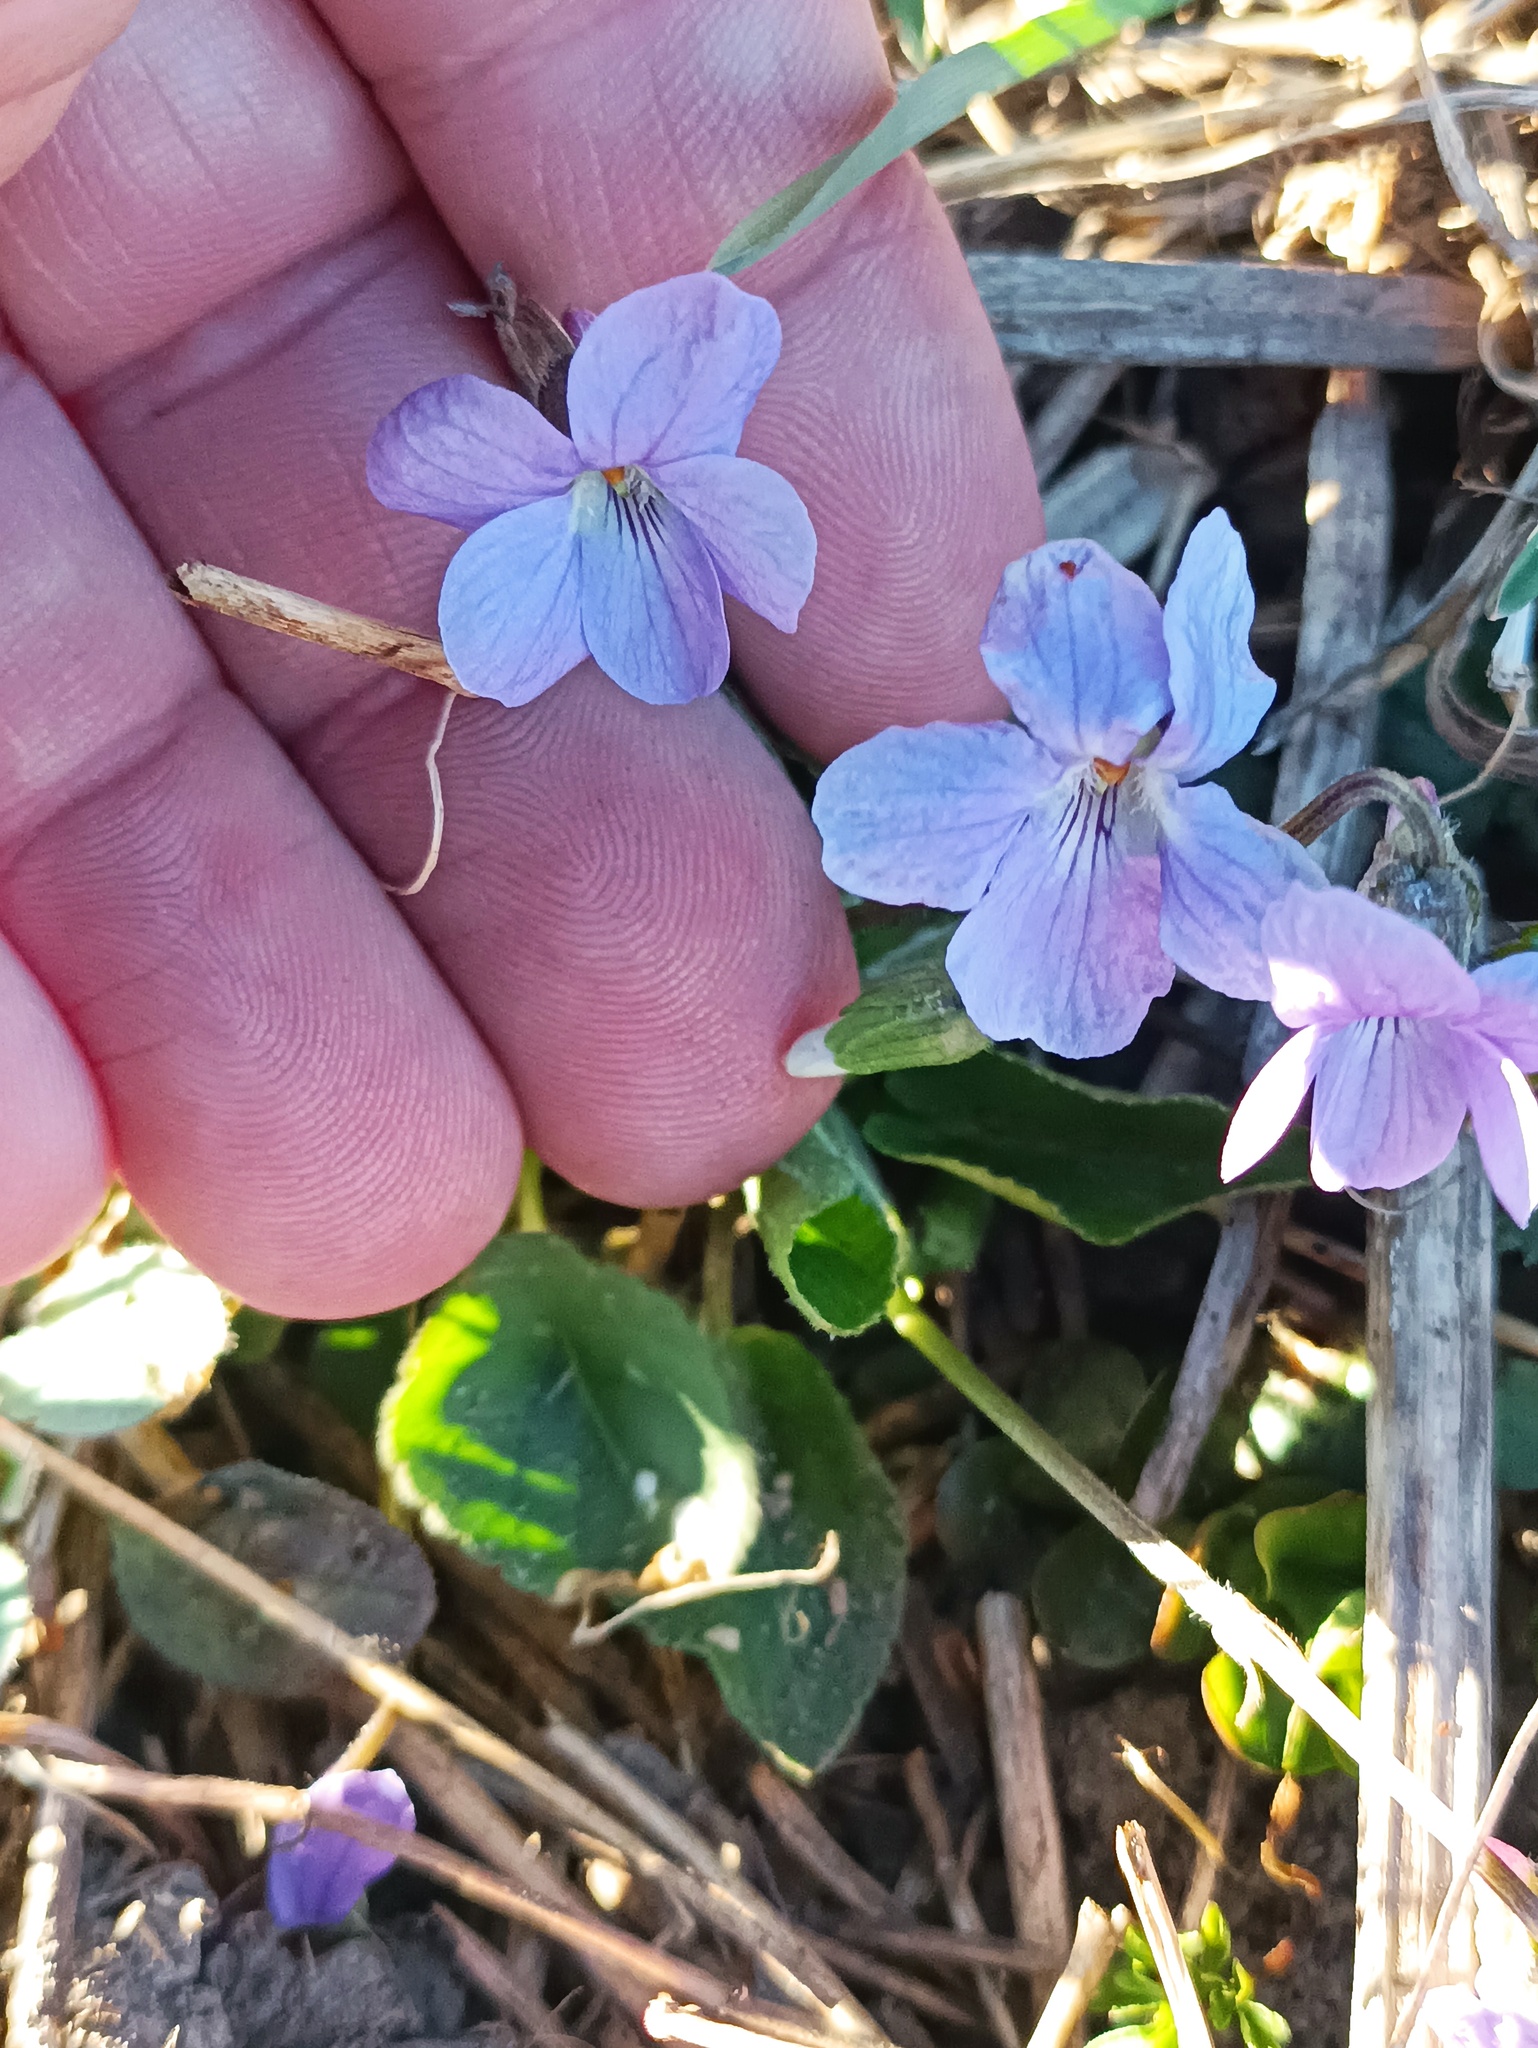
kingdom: Plantae
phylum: Tracheophyta
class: Magnoliopsida
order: Malpighiales
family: Violaceae
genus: Viola
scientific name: Viola hirta
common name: Hairy violet
